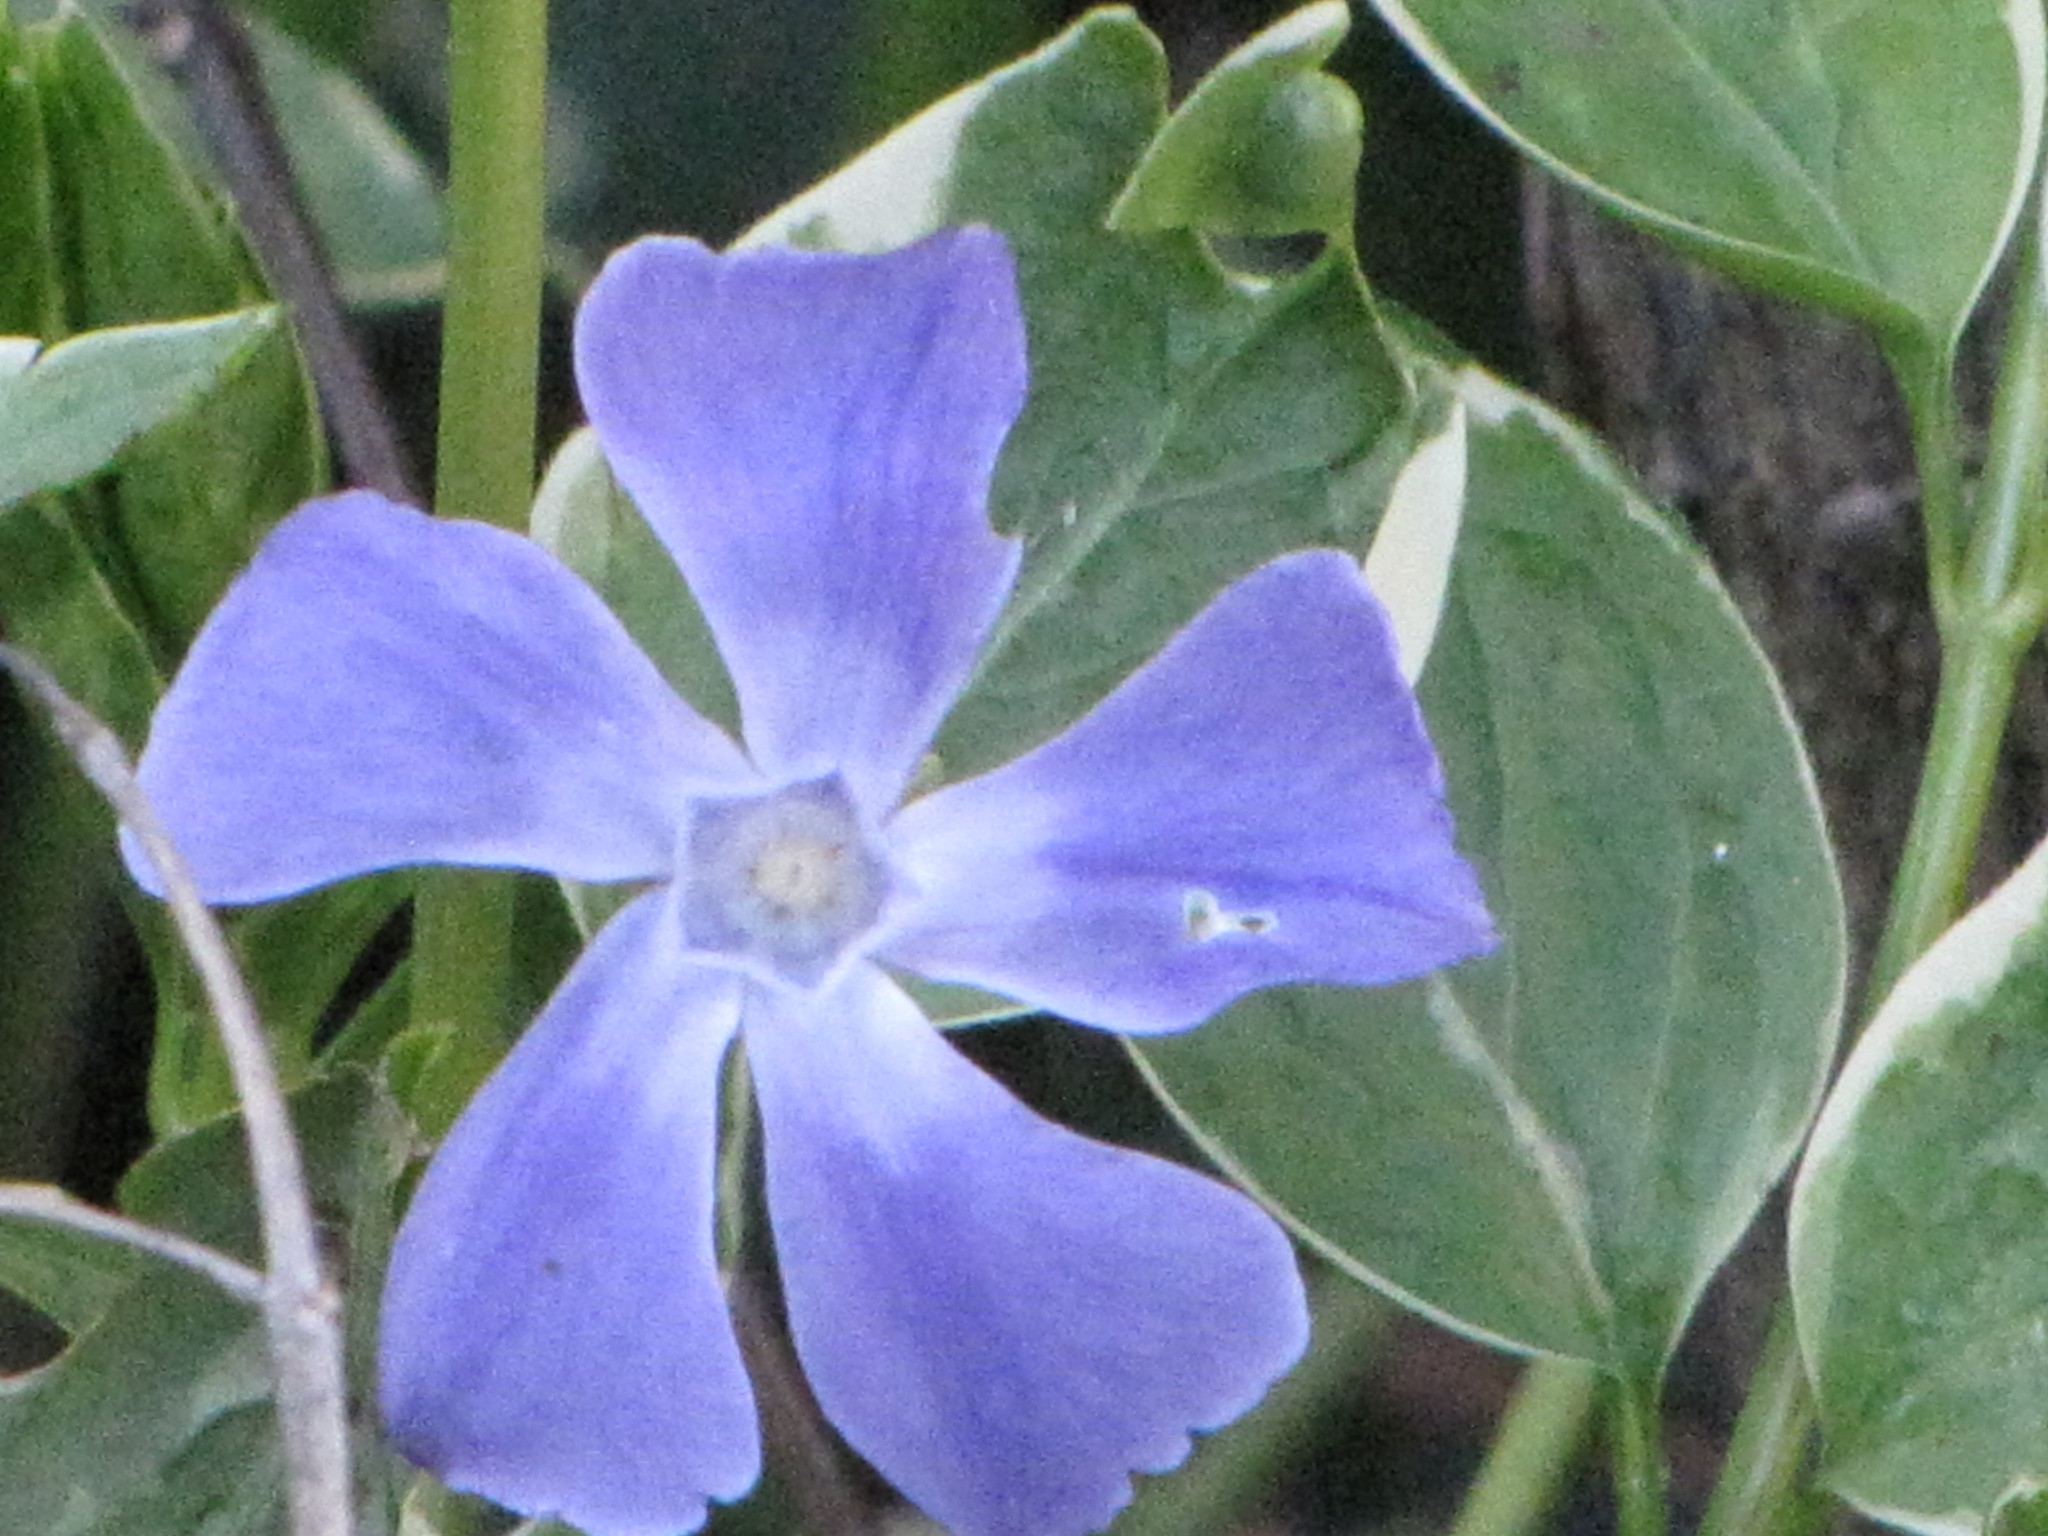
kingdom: Plantae
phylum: Tracheophyta
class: Magnoliopsida
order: Gentianales
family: Apocynaceae
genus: Vinca
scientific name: Vinca major
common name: Greater periwinkle
